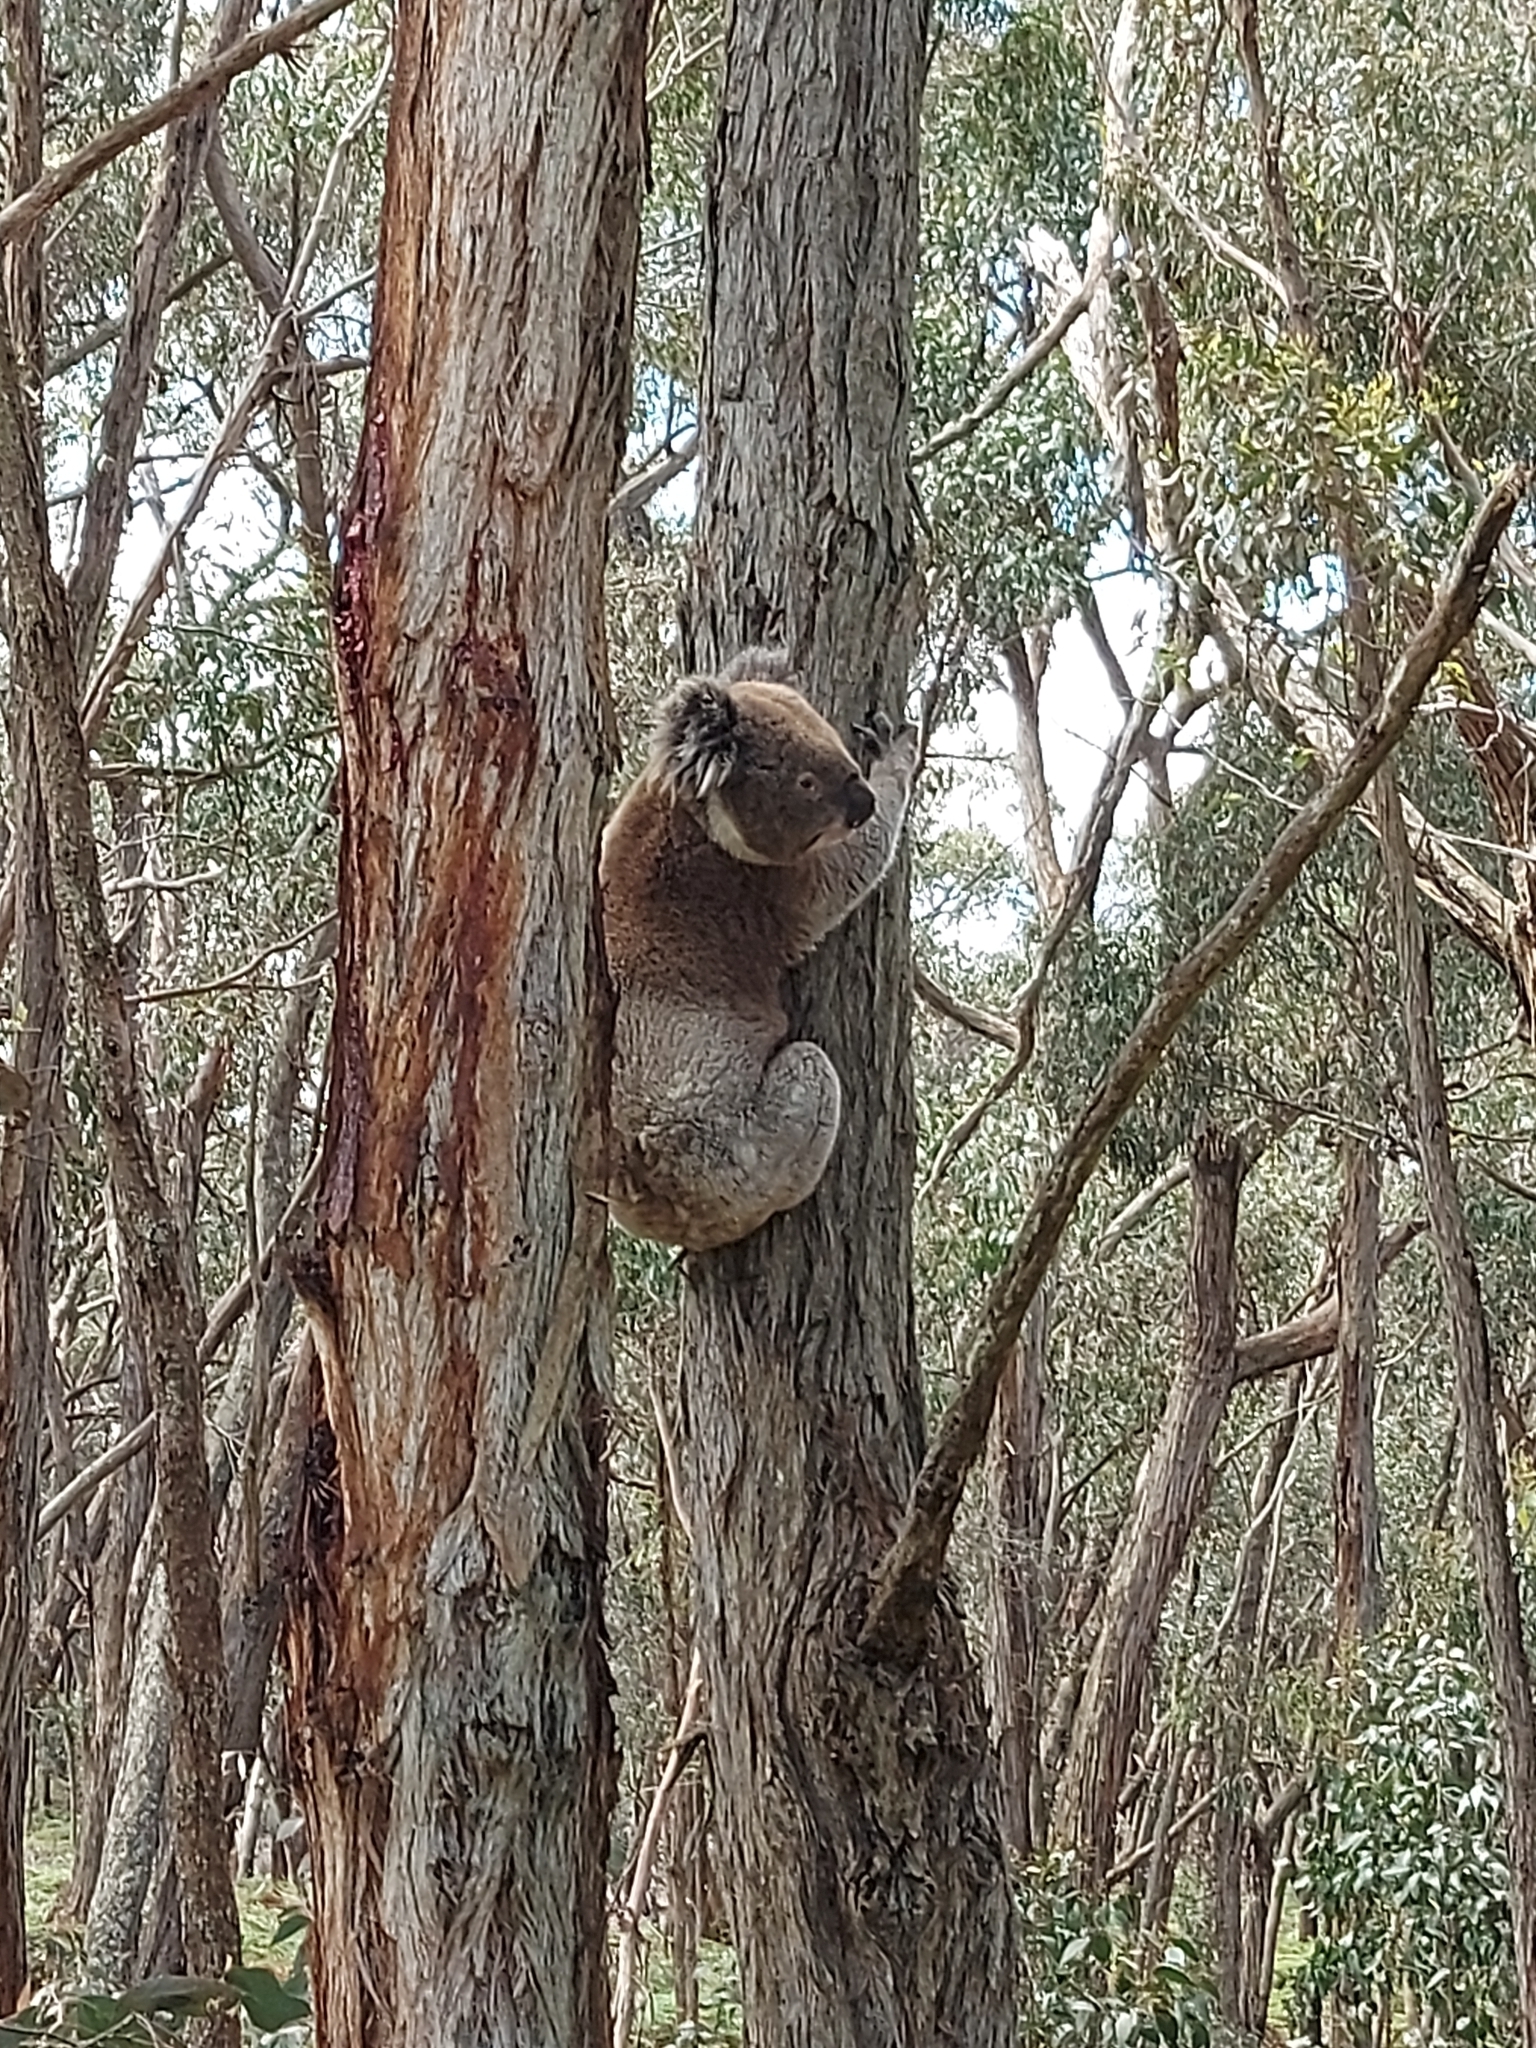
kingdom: Animalia
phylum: Chordata
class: Mammalia
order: Diprotodontia
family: Phascolarctidae
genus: Phascolarctos
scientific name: Phascolarctos cinereus
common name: Koala
